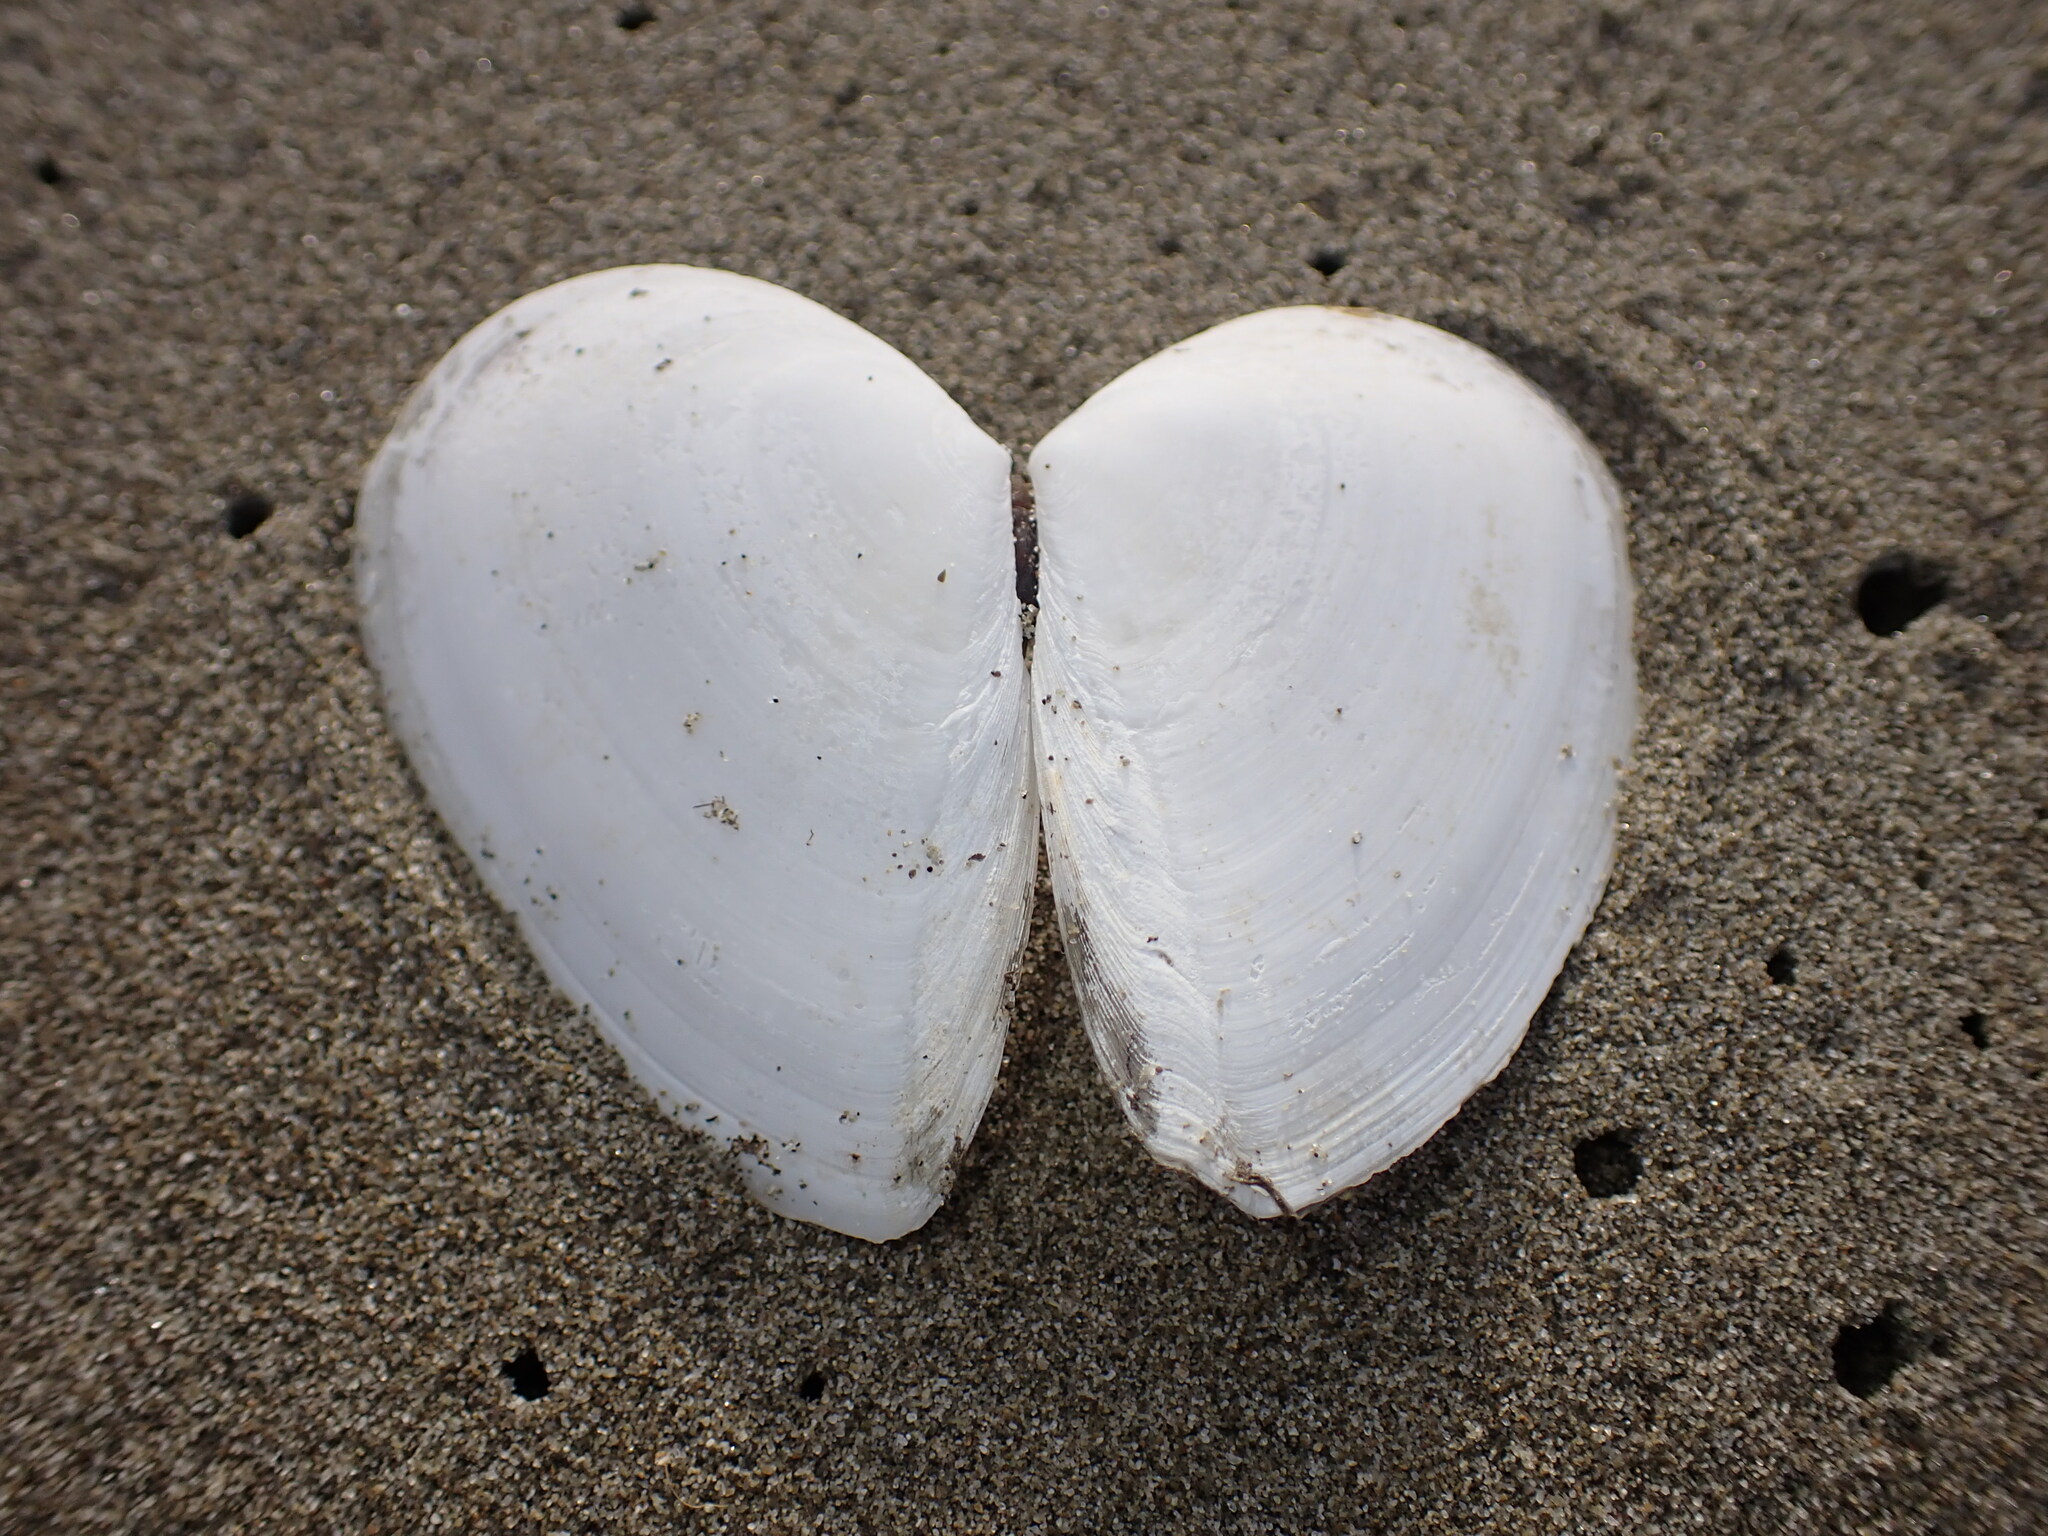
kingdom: Animalia
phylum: Mollusca
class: Bivalvia
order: Cardiida
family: Tellinidae
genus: Bartschicoma
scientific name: Bartschicoma gaimardi
